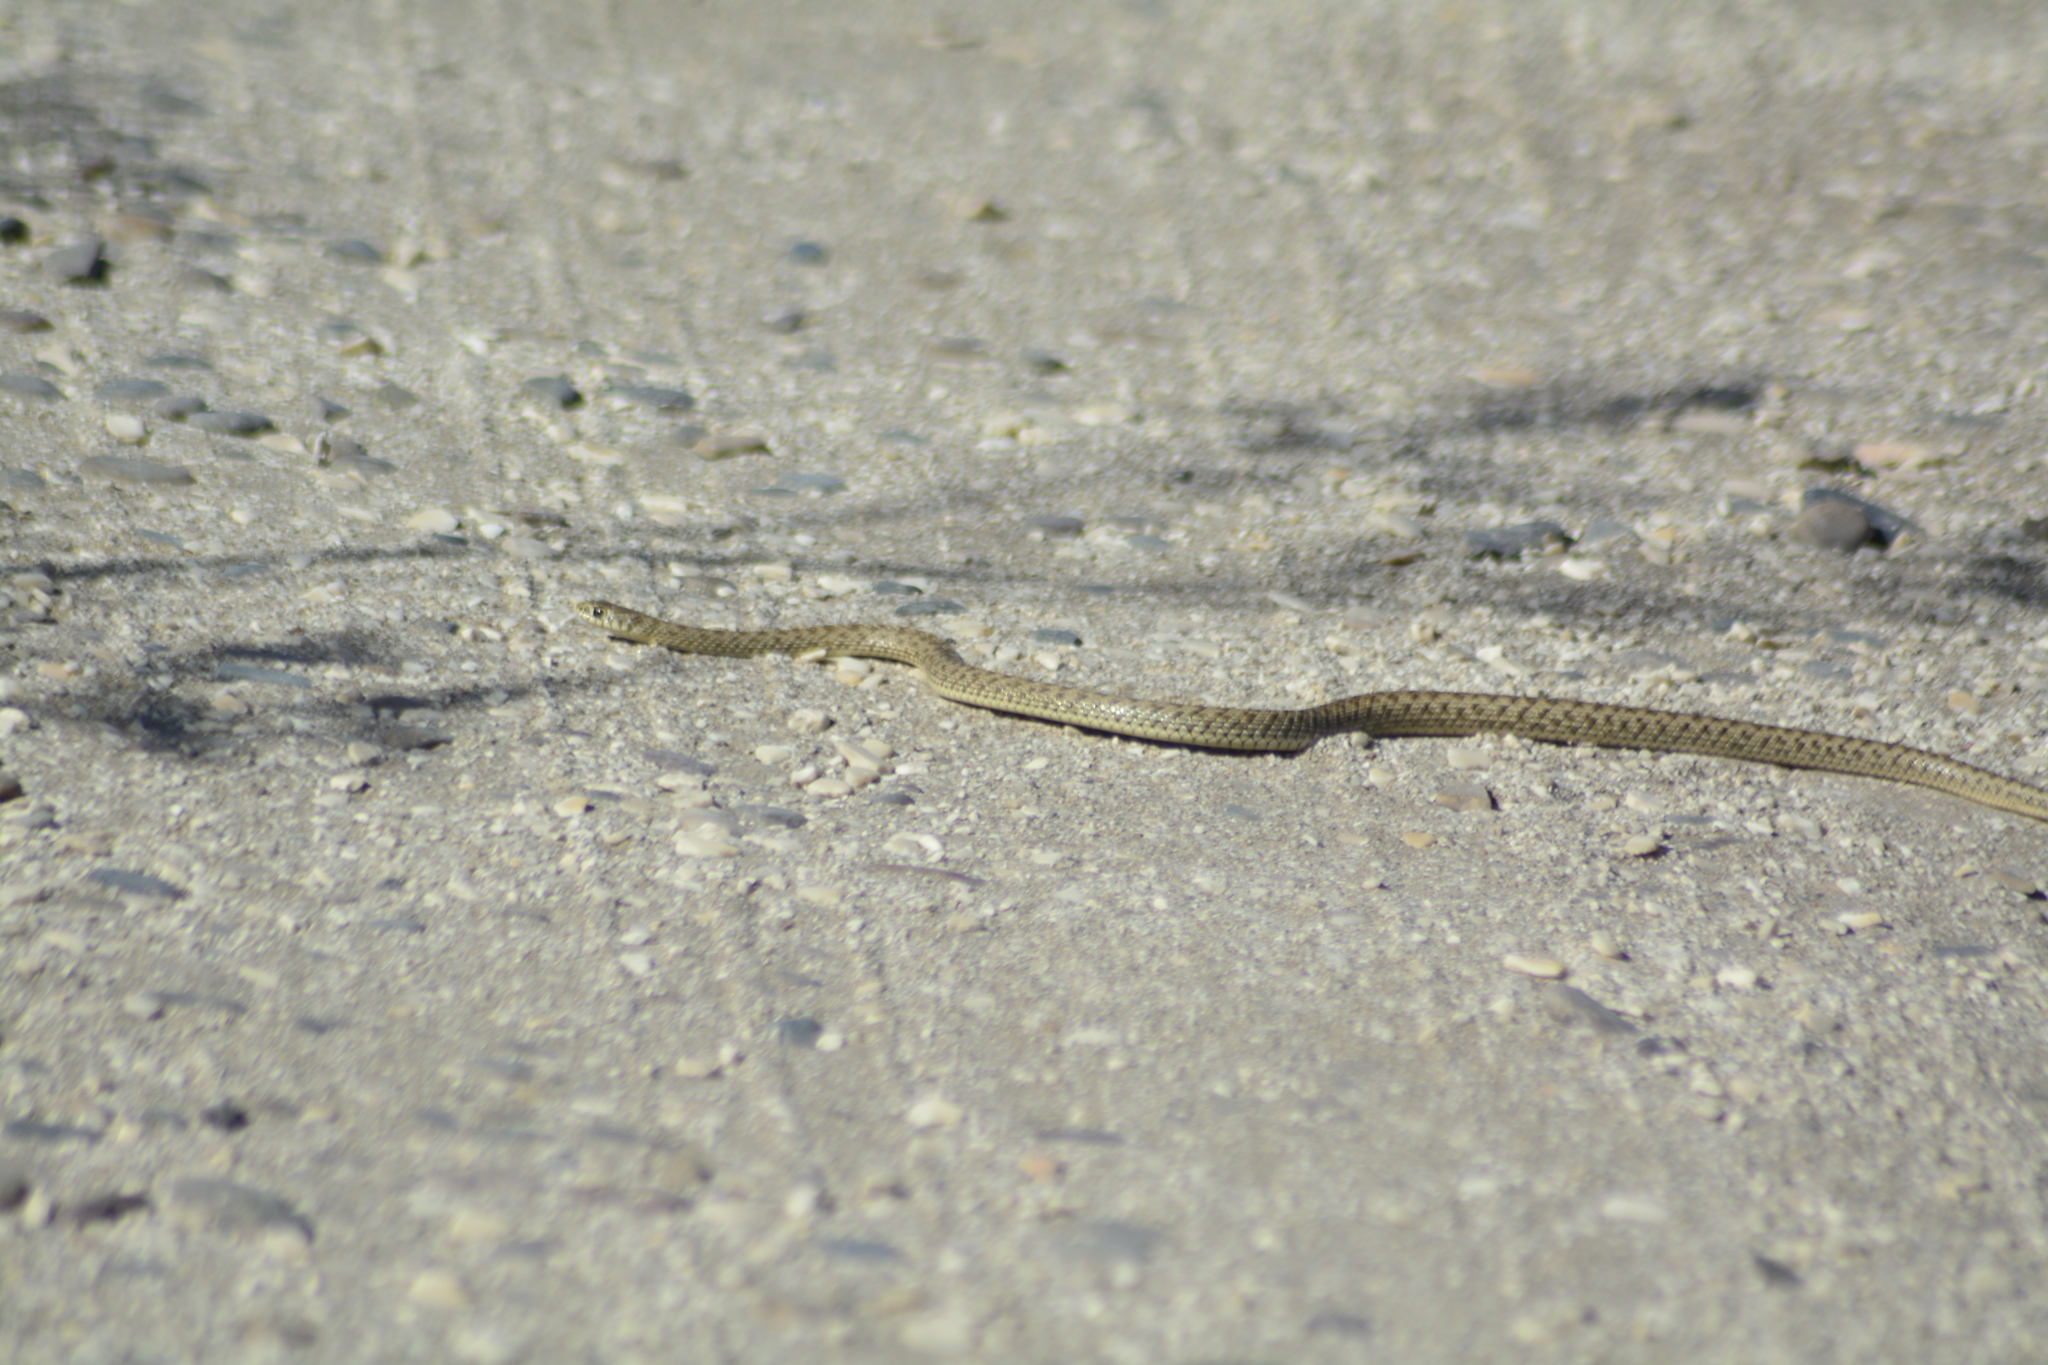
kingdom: Animalia
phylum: Chordata
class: Squamata
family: Colubridae
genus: Philodryas
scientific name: Philodryas patagoniensis
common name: Patagonia green racer
